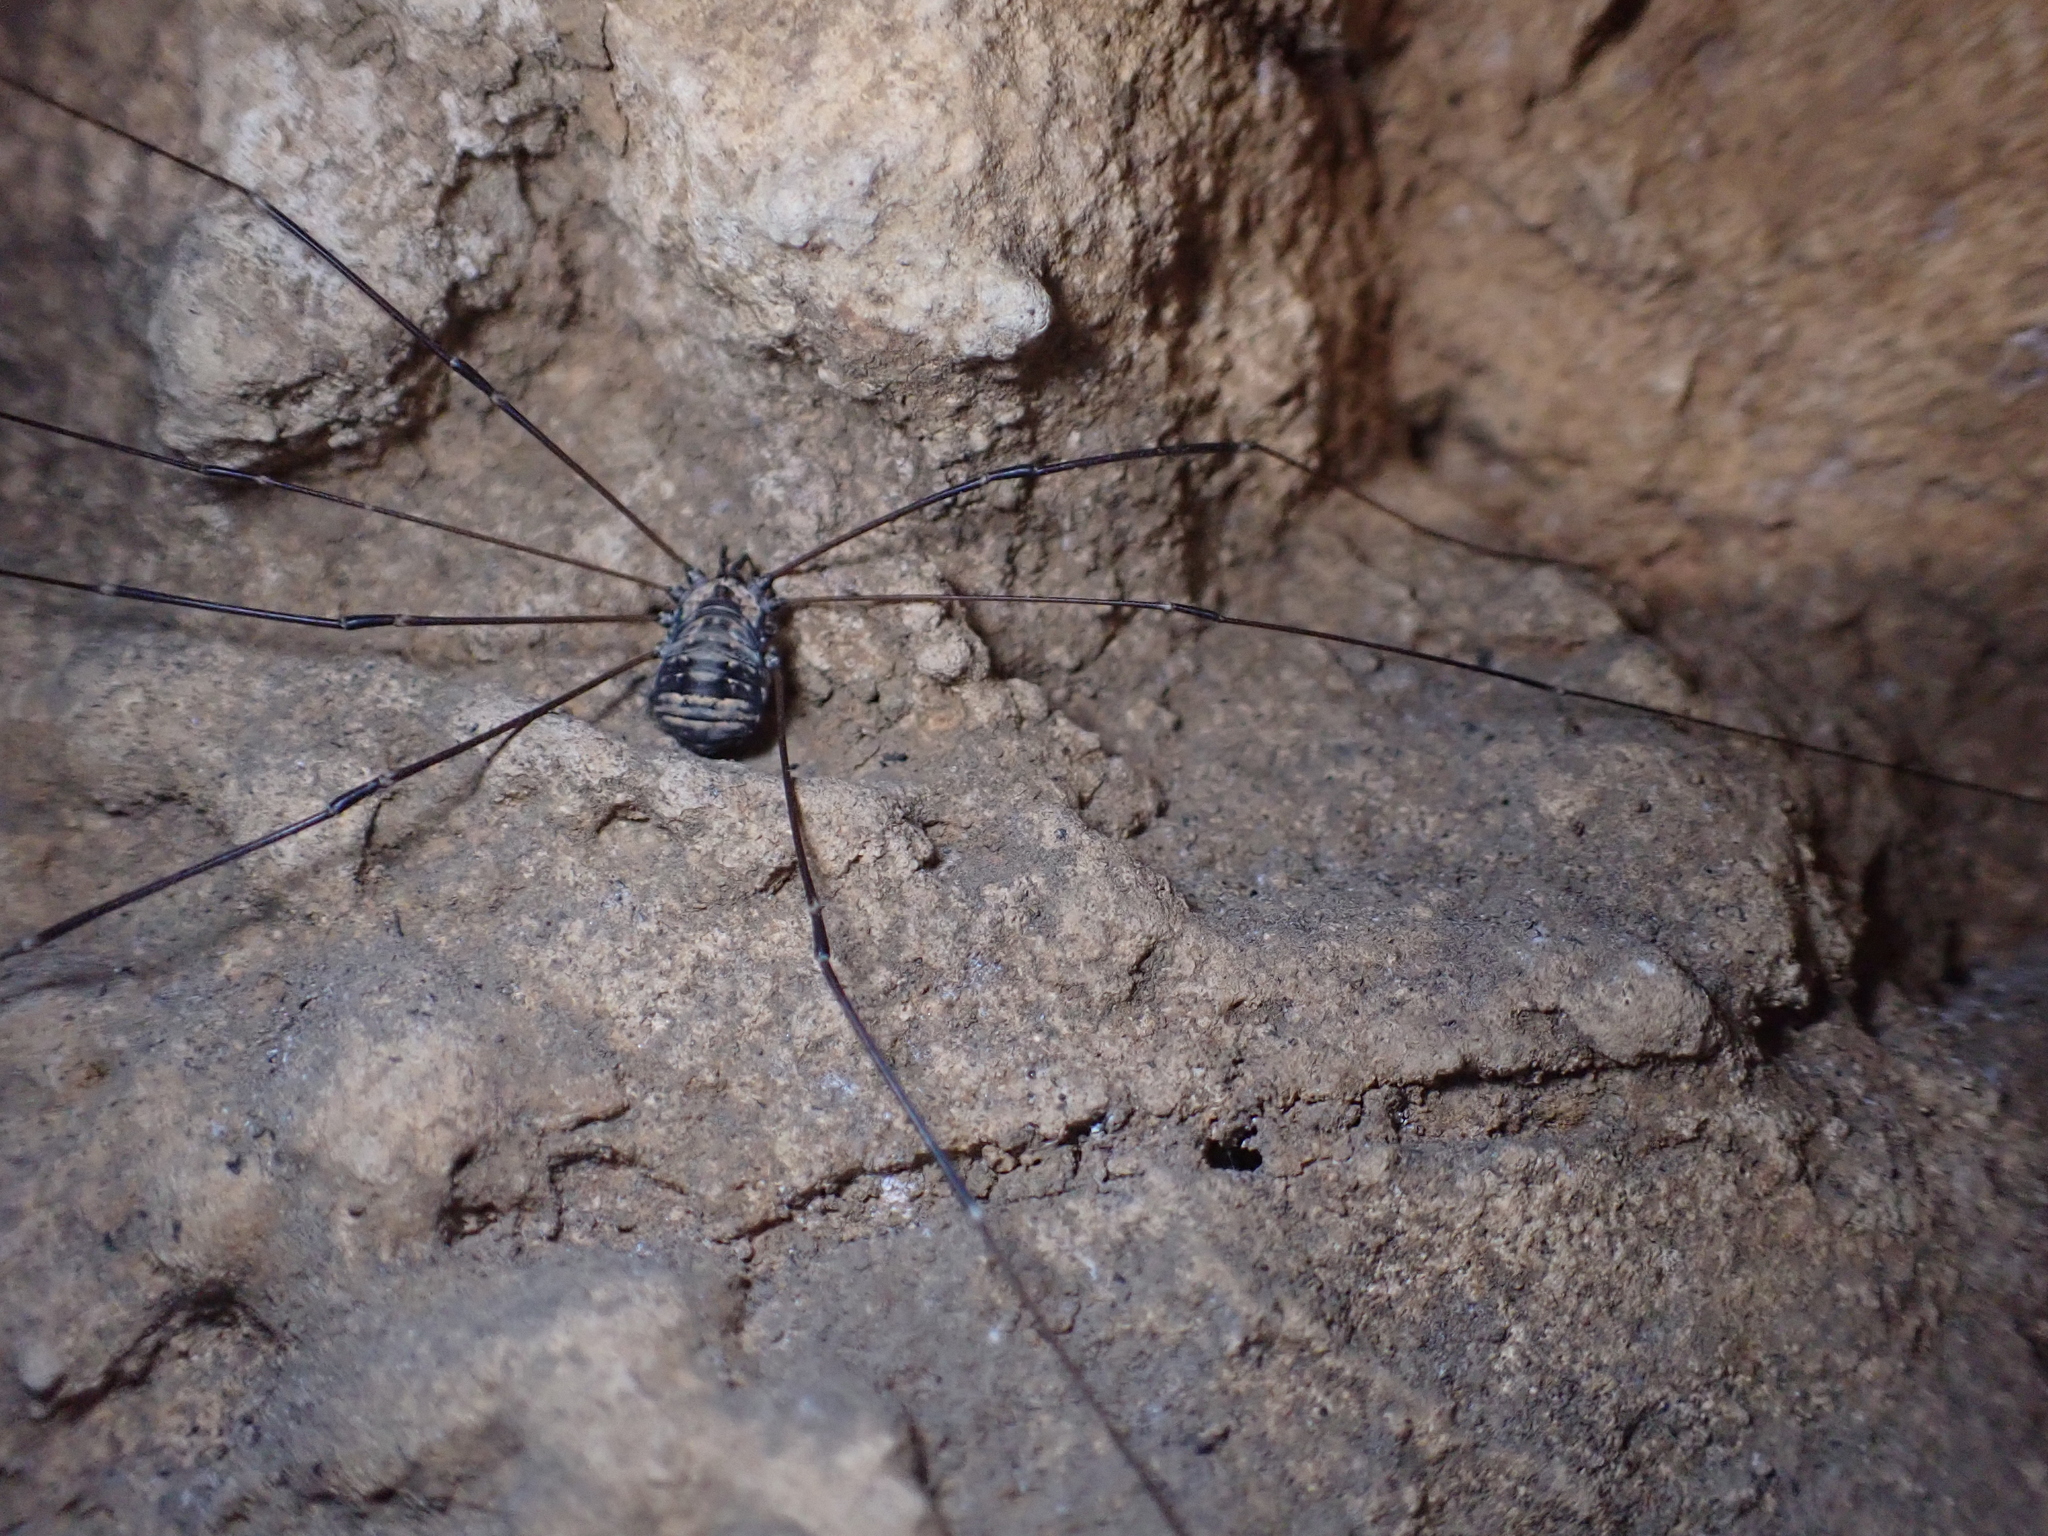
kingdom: Animalia
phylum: Arthropoda
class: Arachnida
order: Opiliones
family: Sclerosomatidae
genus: Leiobunum
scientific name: Leiobunum limbatum
